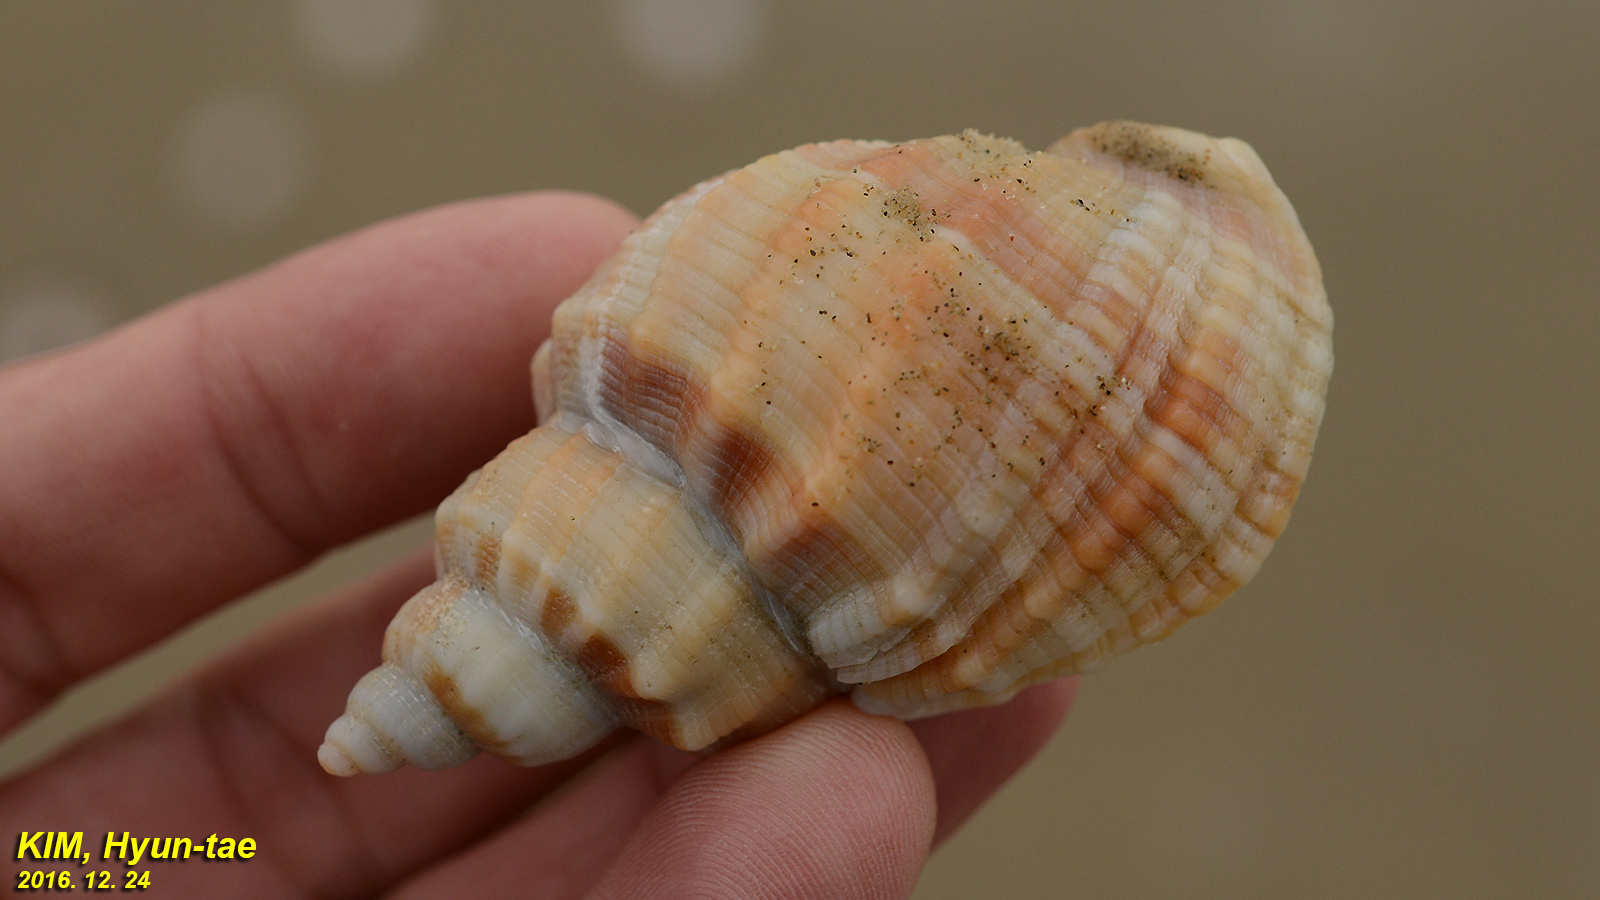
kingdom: Animalia
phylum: Mollusca
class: Gastropoda
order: Neogastropoda
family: Cancellariidae
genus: Sydaphera
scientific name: Sydaphera spengleriana
